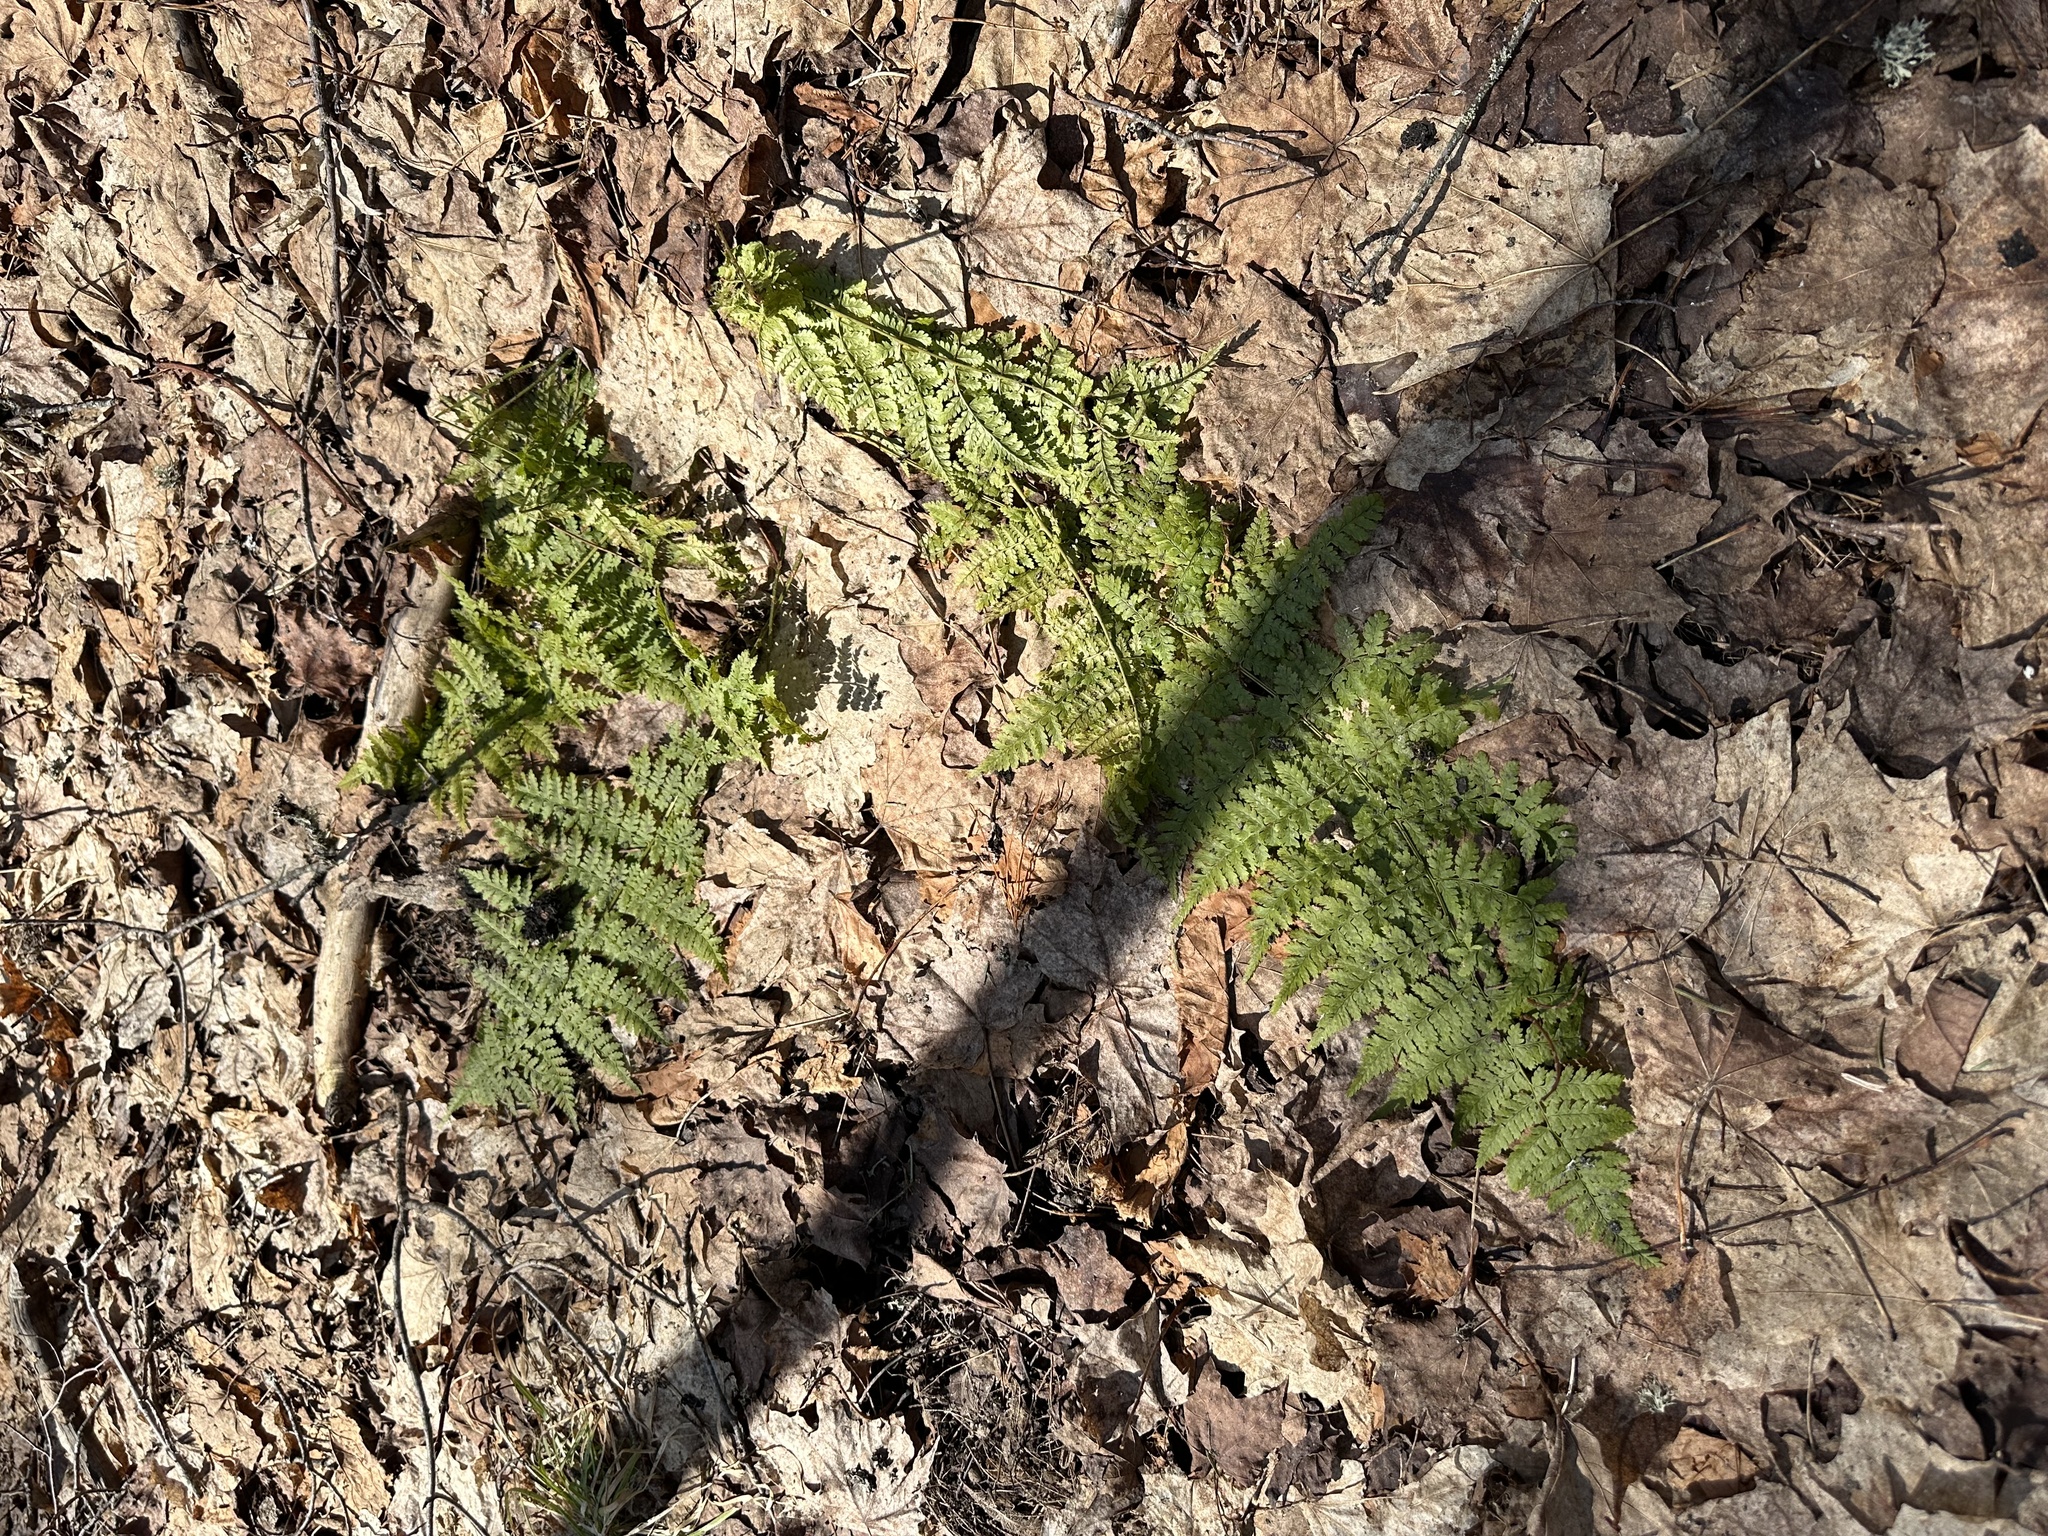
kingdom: Plantae
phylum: Tracheophyta
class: Polypodiopsida
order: Polypodiales
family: Dryopteridaceae
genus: Dryopteris
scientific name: Dryopteris intermedia
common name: Evergreen wood fern
